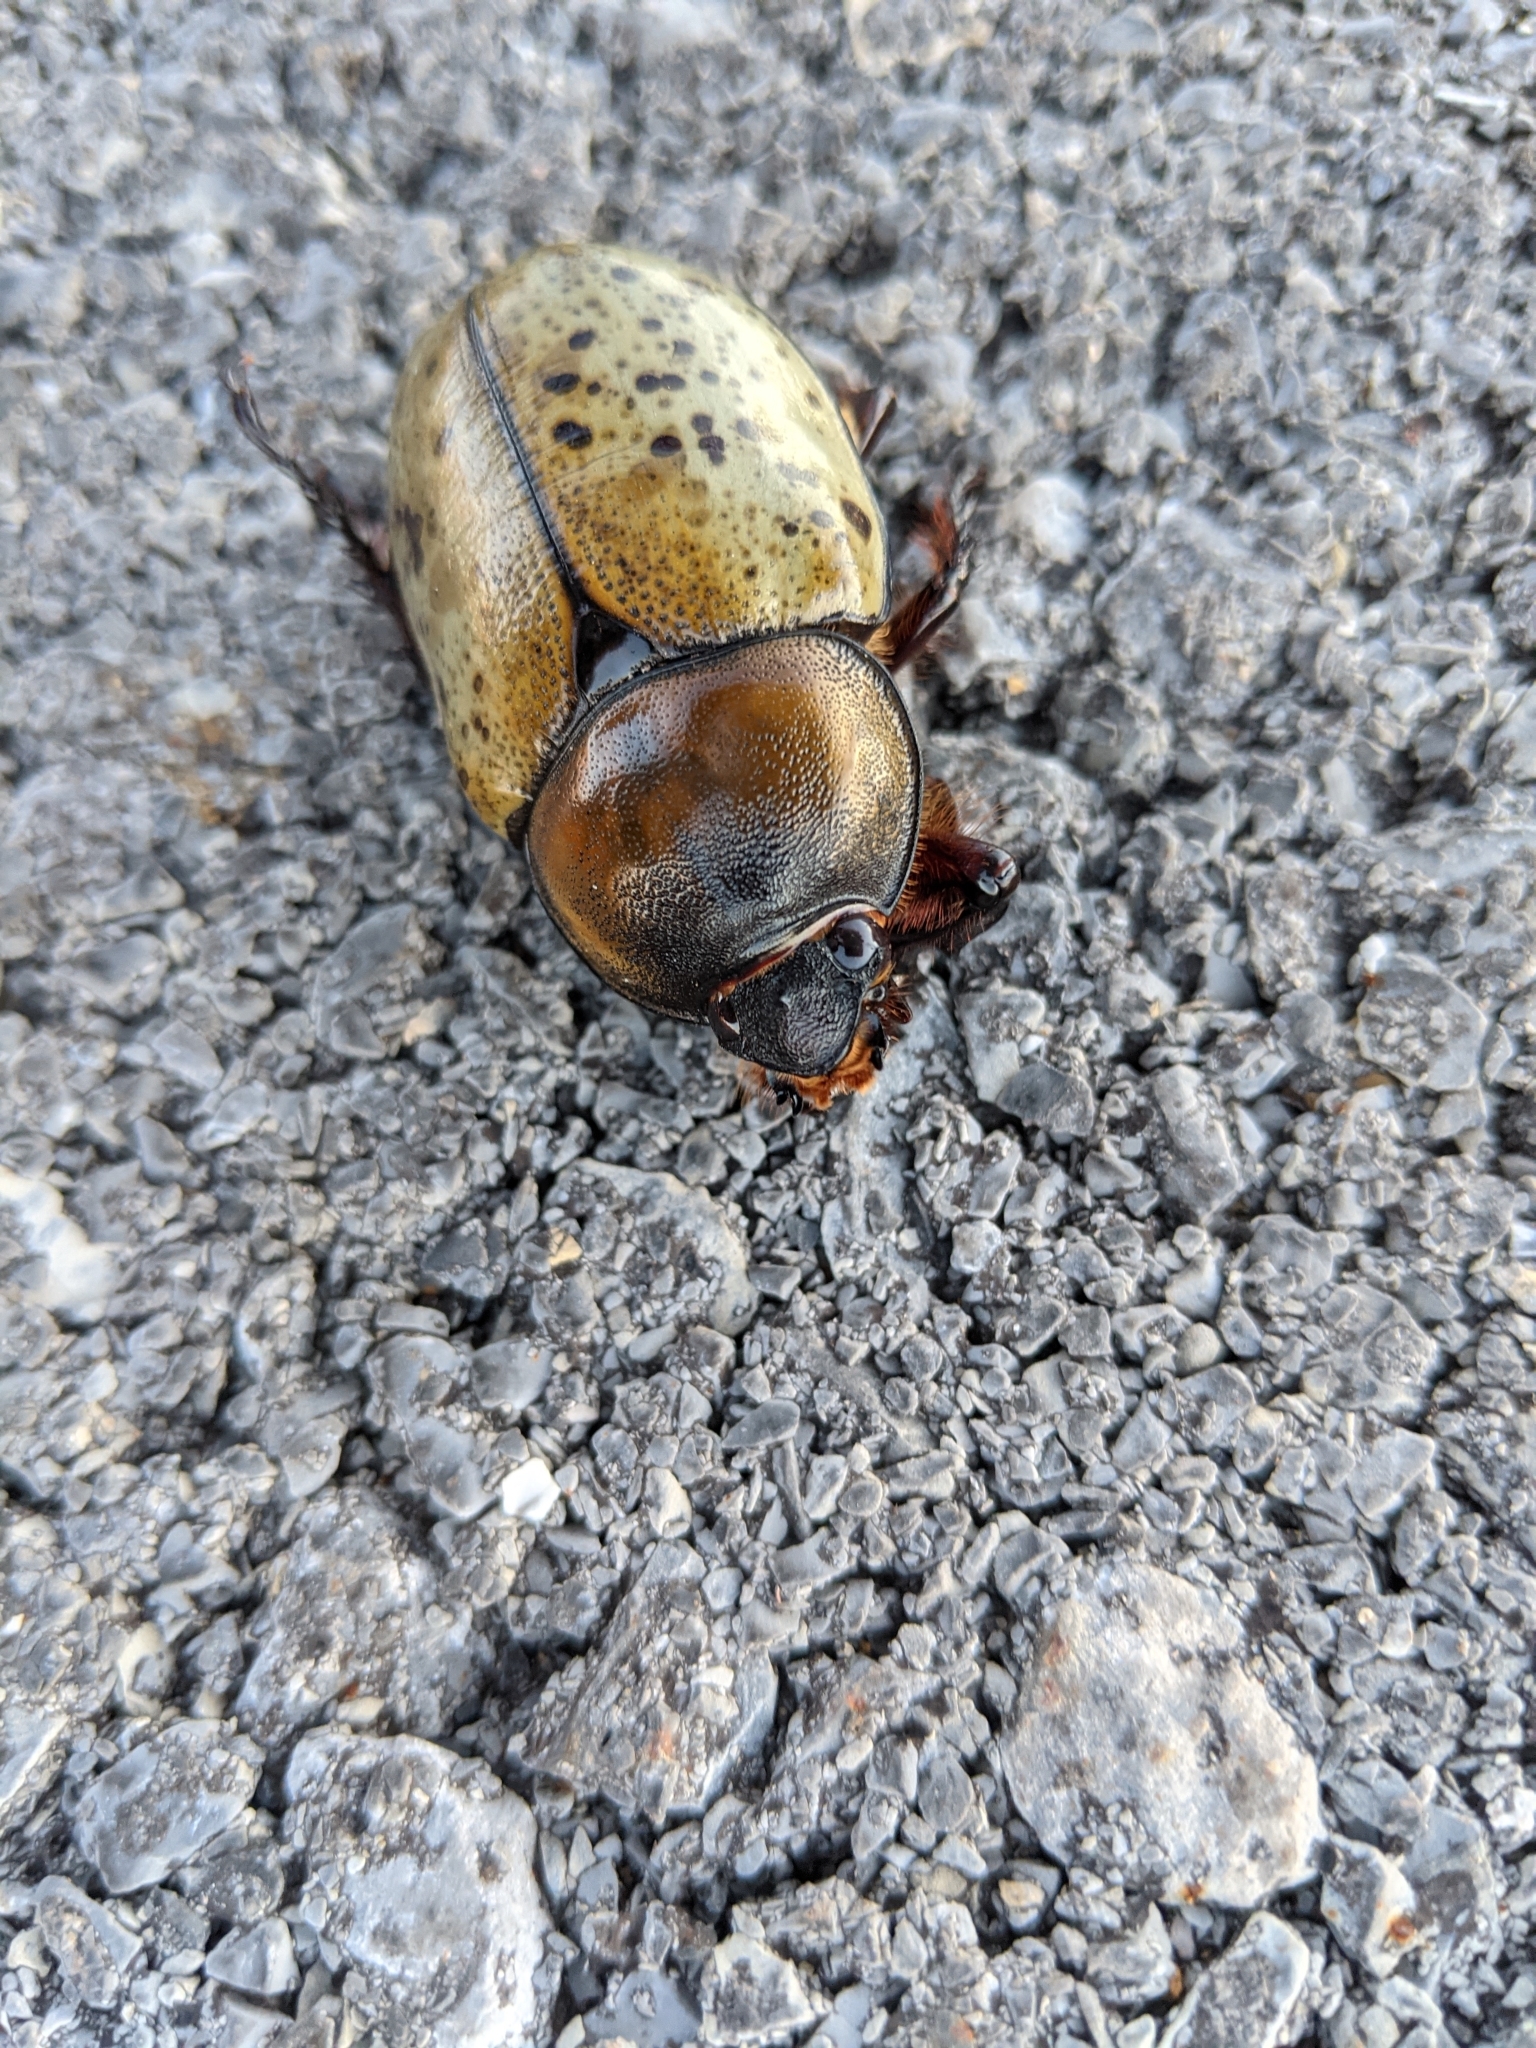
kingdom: Animalia
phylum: Arthropoda
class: Insecta
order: Coleoptera
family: Scarabaeidae
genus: Dynastes
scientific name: Dynastes tityus
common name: Eastern hercules beetle
